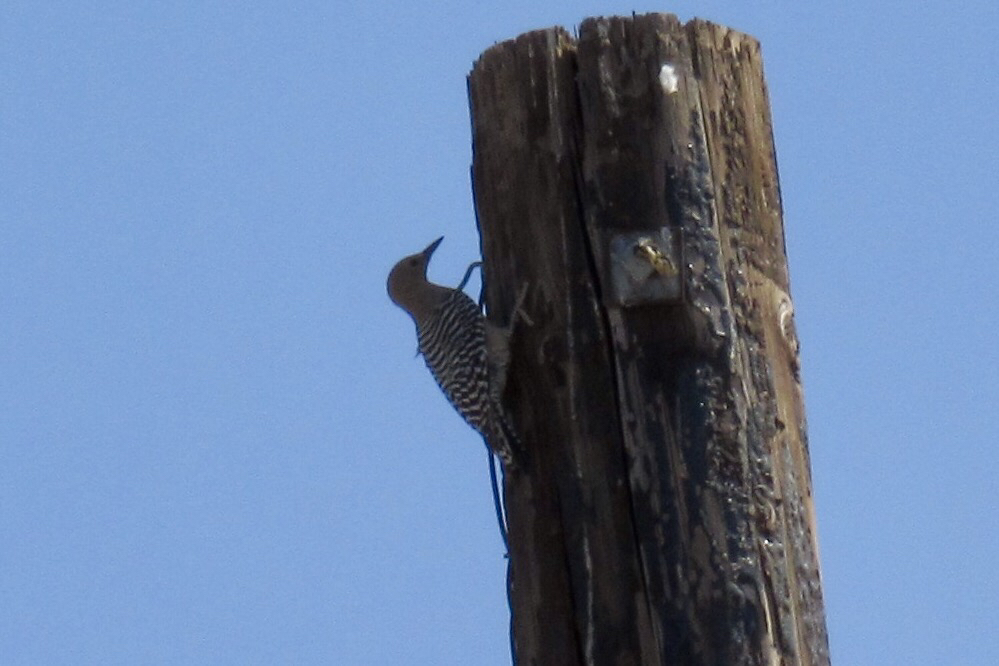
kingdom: Animalia
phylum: Chordata
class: Aves
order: Piciformes
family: Picidae
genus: Melanerpes
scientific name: Melanerpes uropygialis
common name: Gila woodpecker
